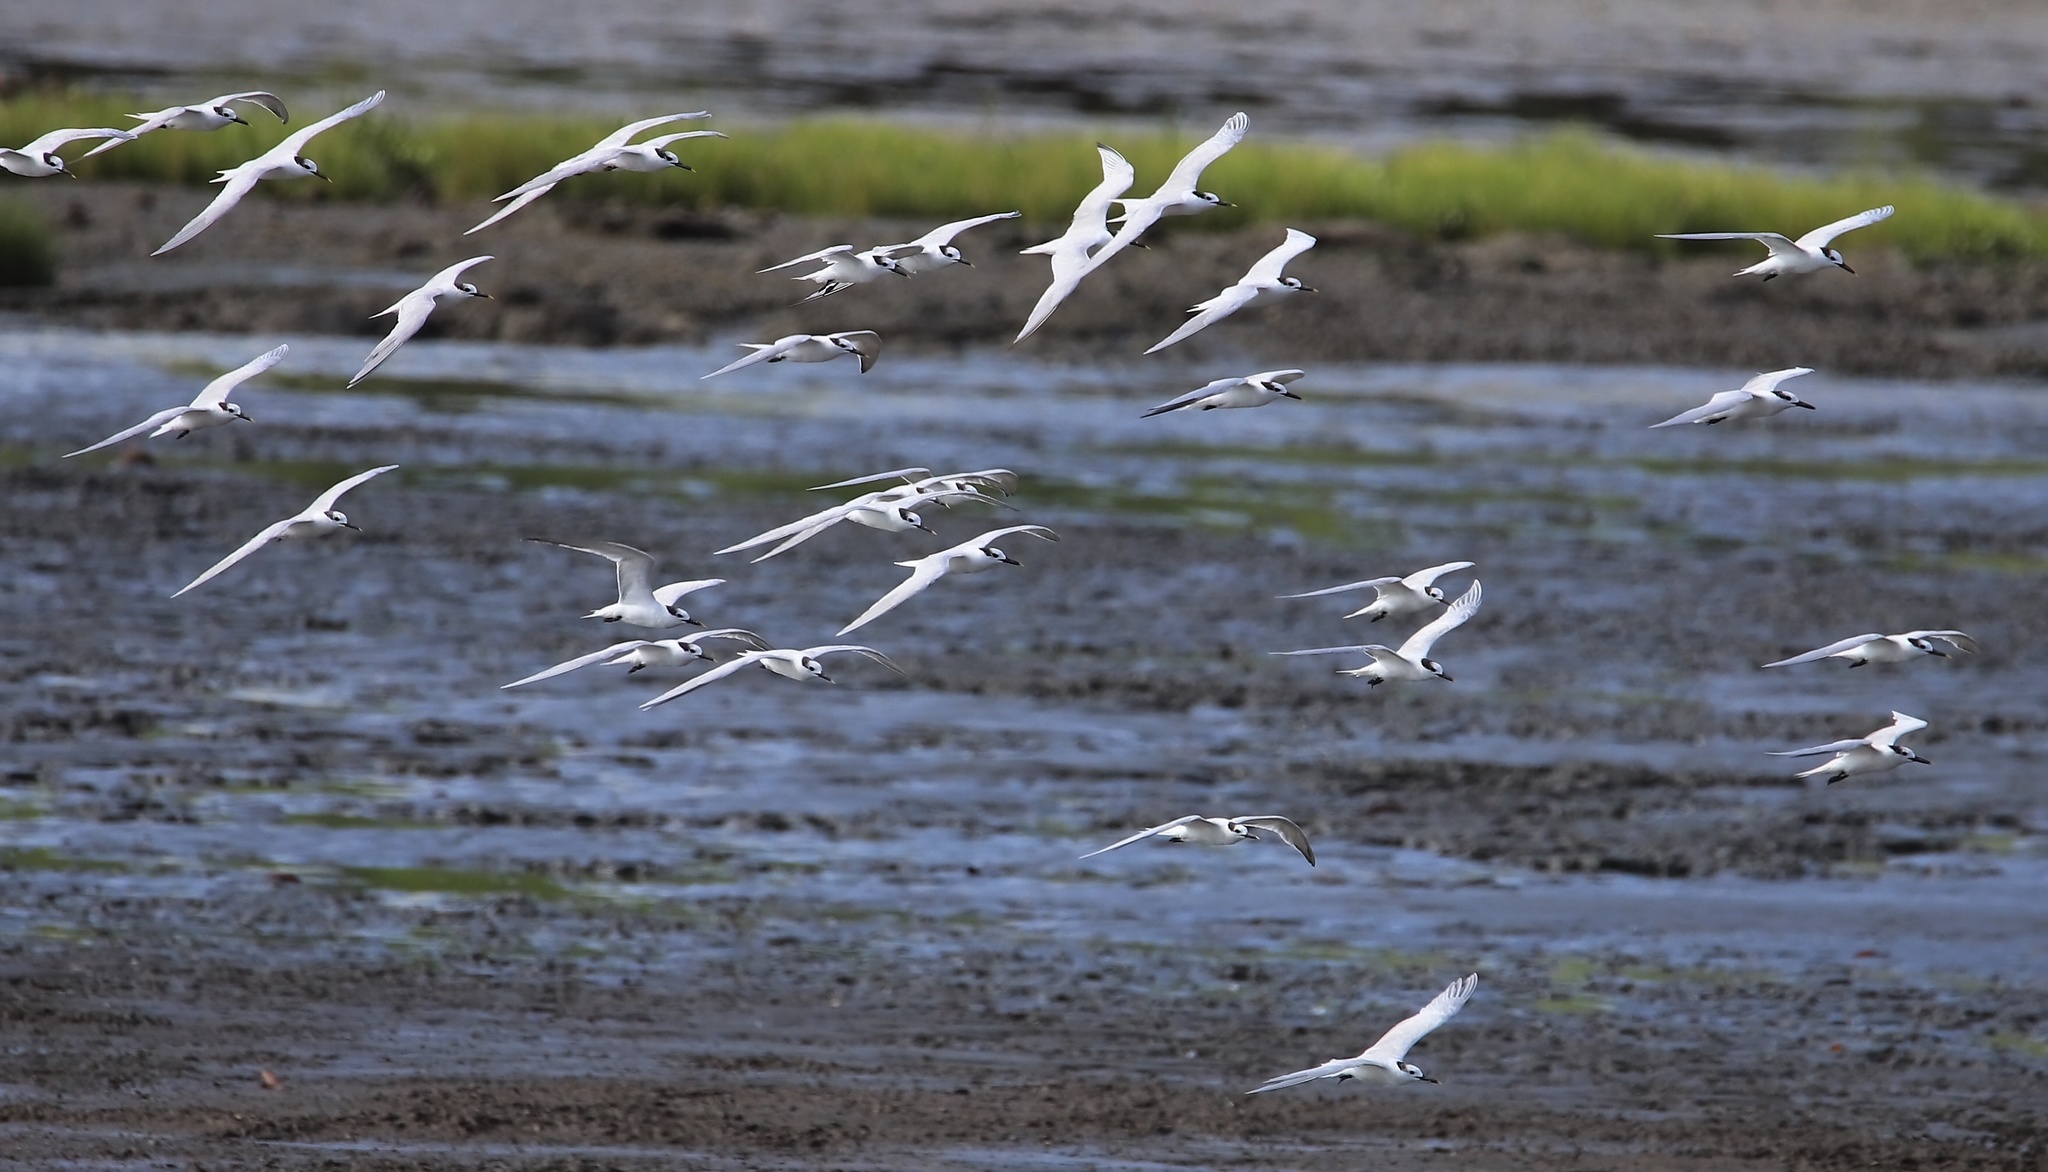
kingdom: Animalia
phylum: Chordata
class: Aves
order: Charadriiformes
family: Laridae
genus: Thalasseus
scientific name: Thalasseus sandvicensis
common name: Sandwich tern
